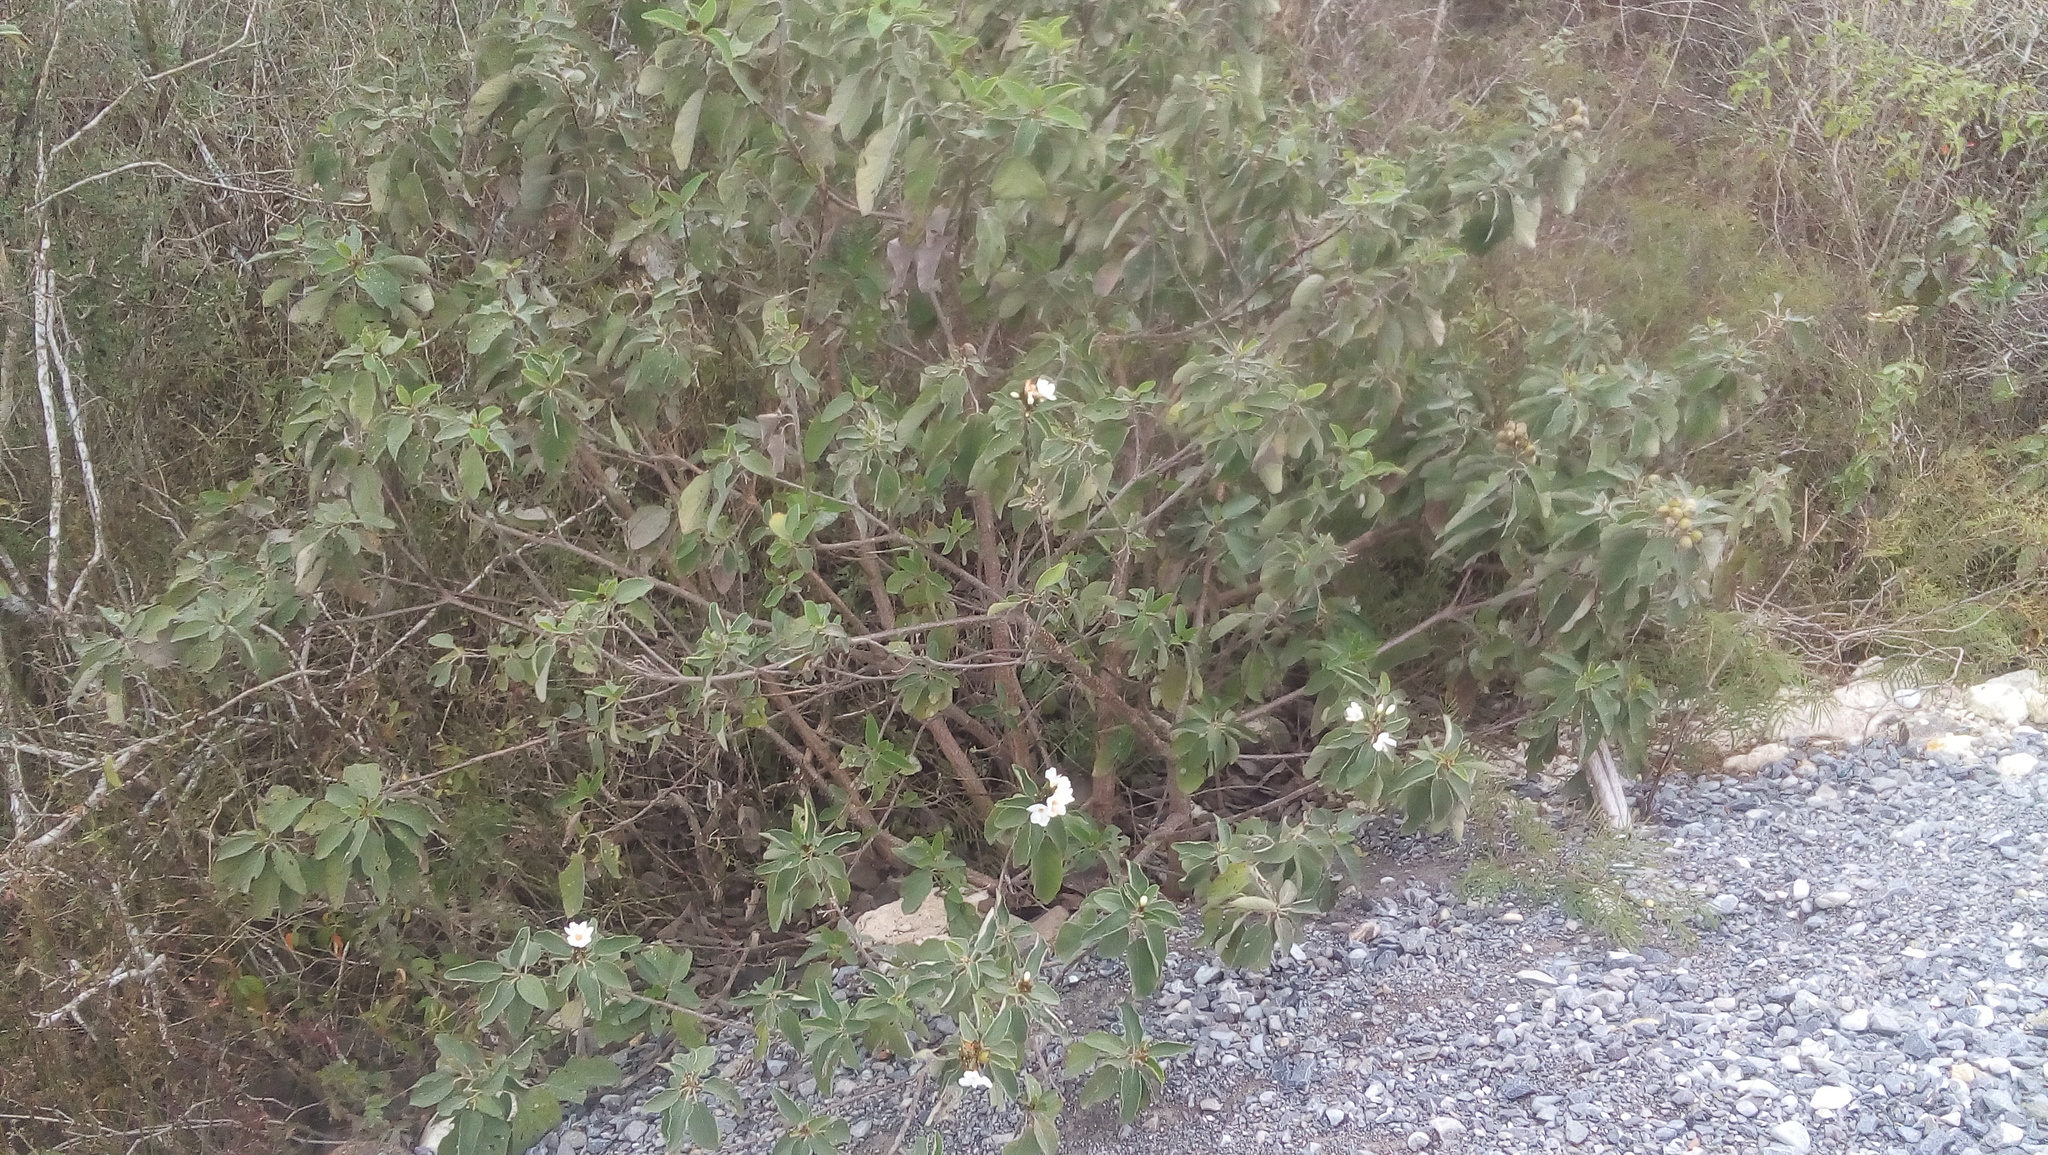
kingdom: Plantae
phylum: Tracheophyta
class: Magnoliopsida
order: Boraginales
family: Cordiaceae
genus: Cordia
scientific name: Cordia boissieri
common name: Mexican-olive
